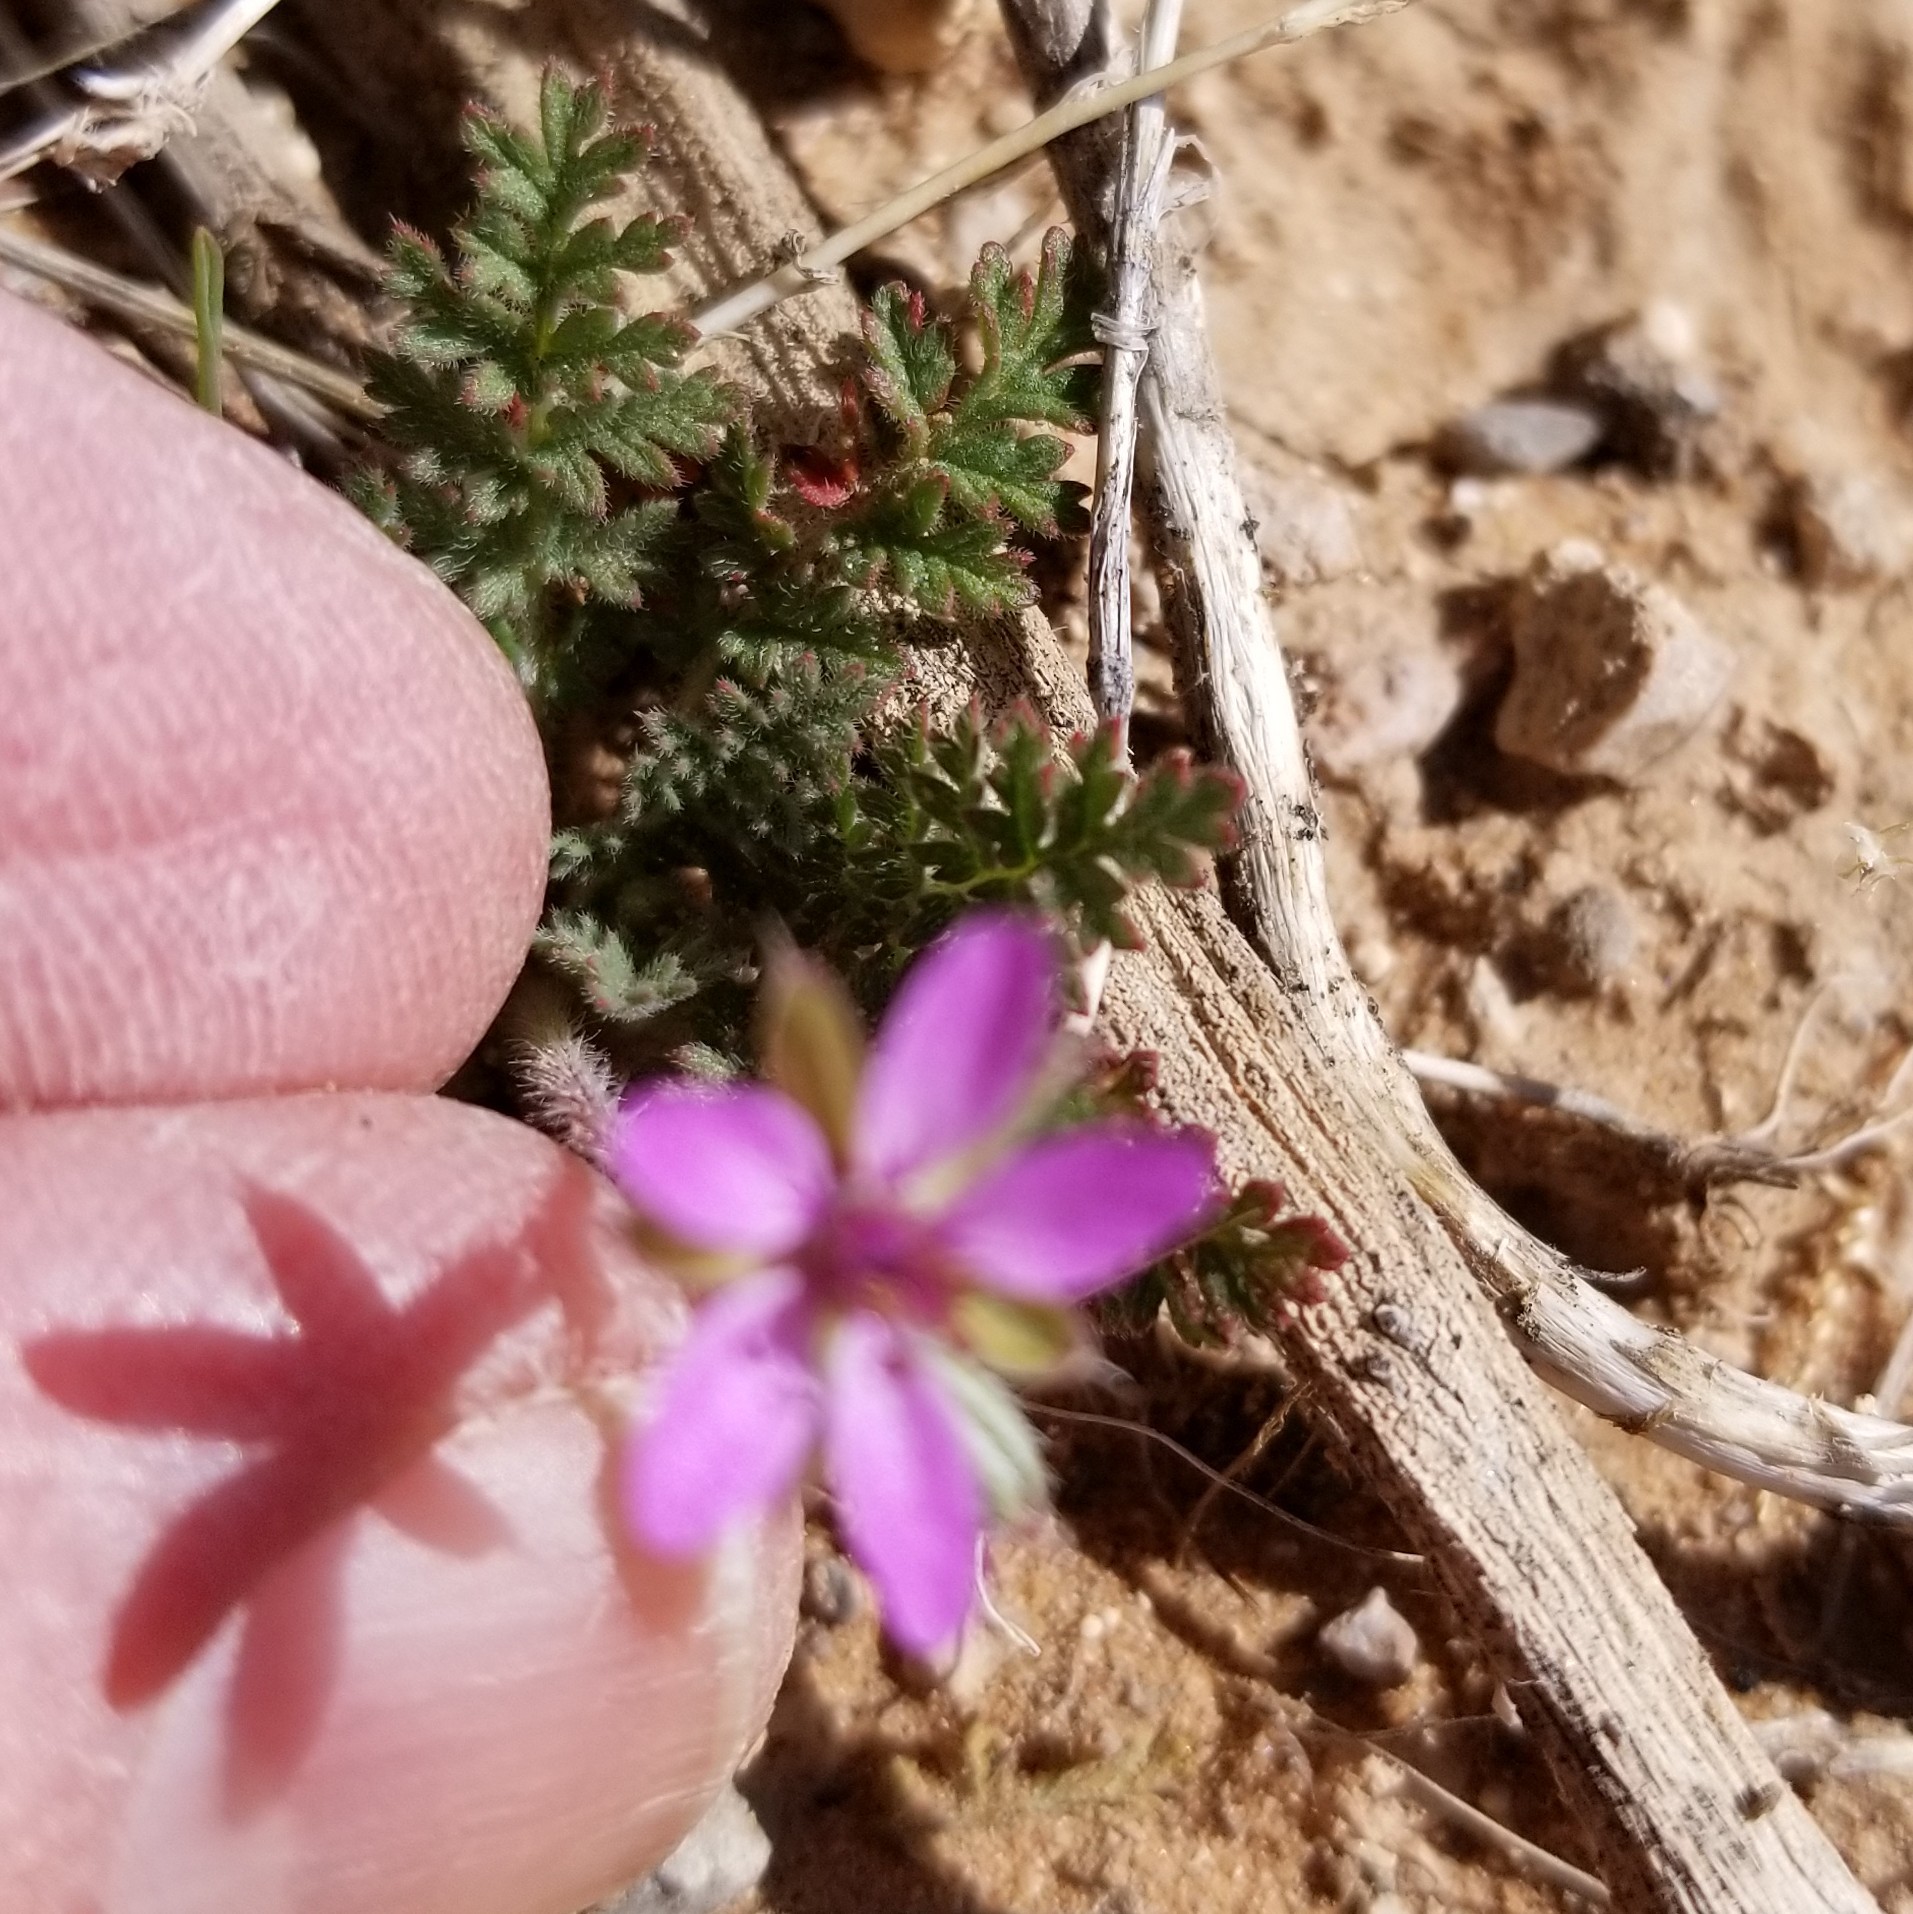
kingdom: Plantae
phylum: Tracheophyta
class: Magnoliopsida
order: Geraniales
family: Geraniaceae
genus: Erodium
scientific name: Erodium cicutarium
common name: Common stork's-bill
